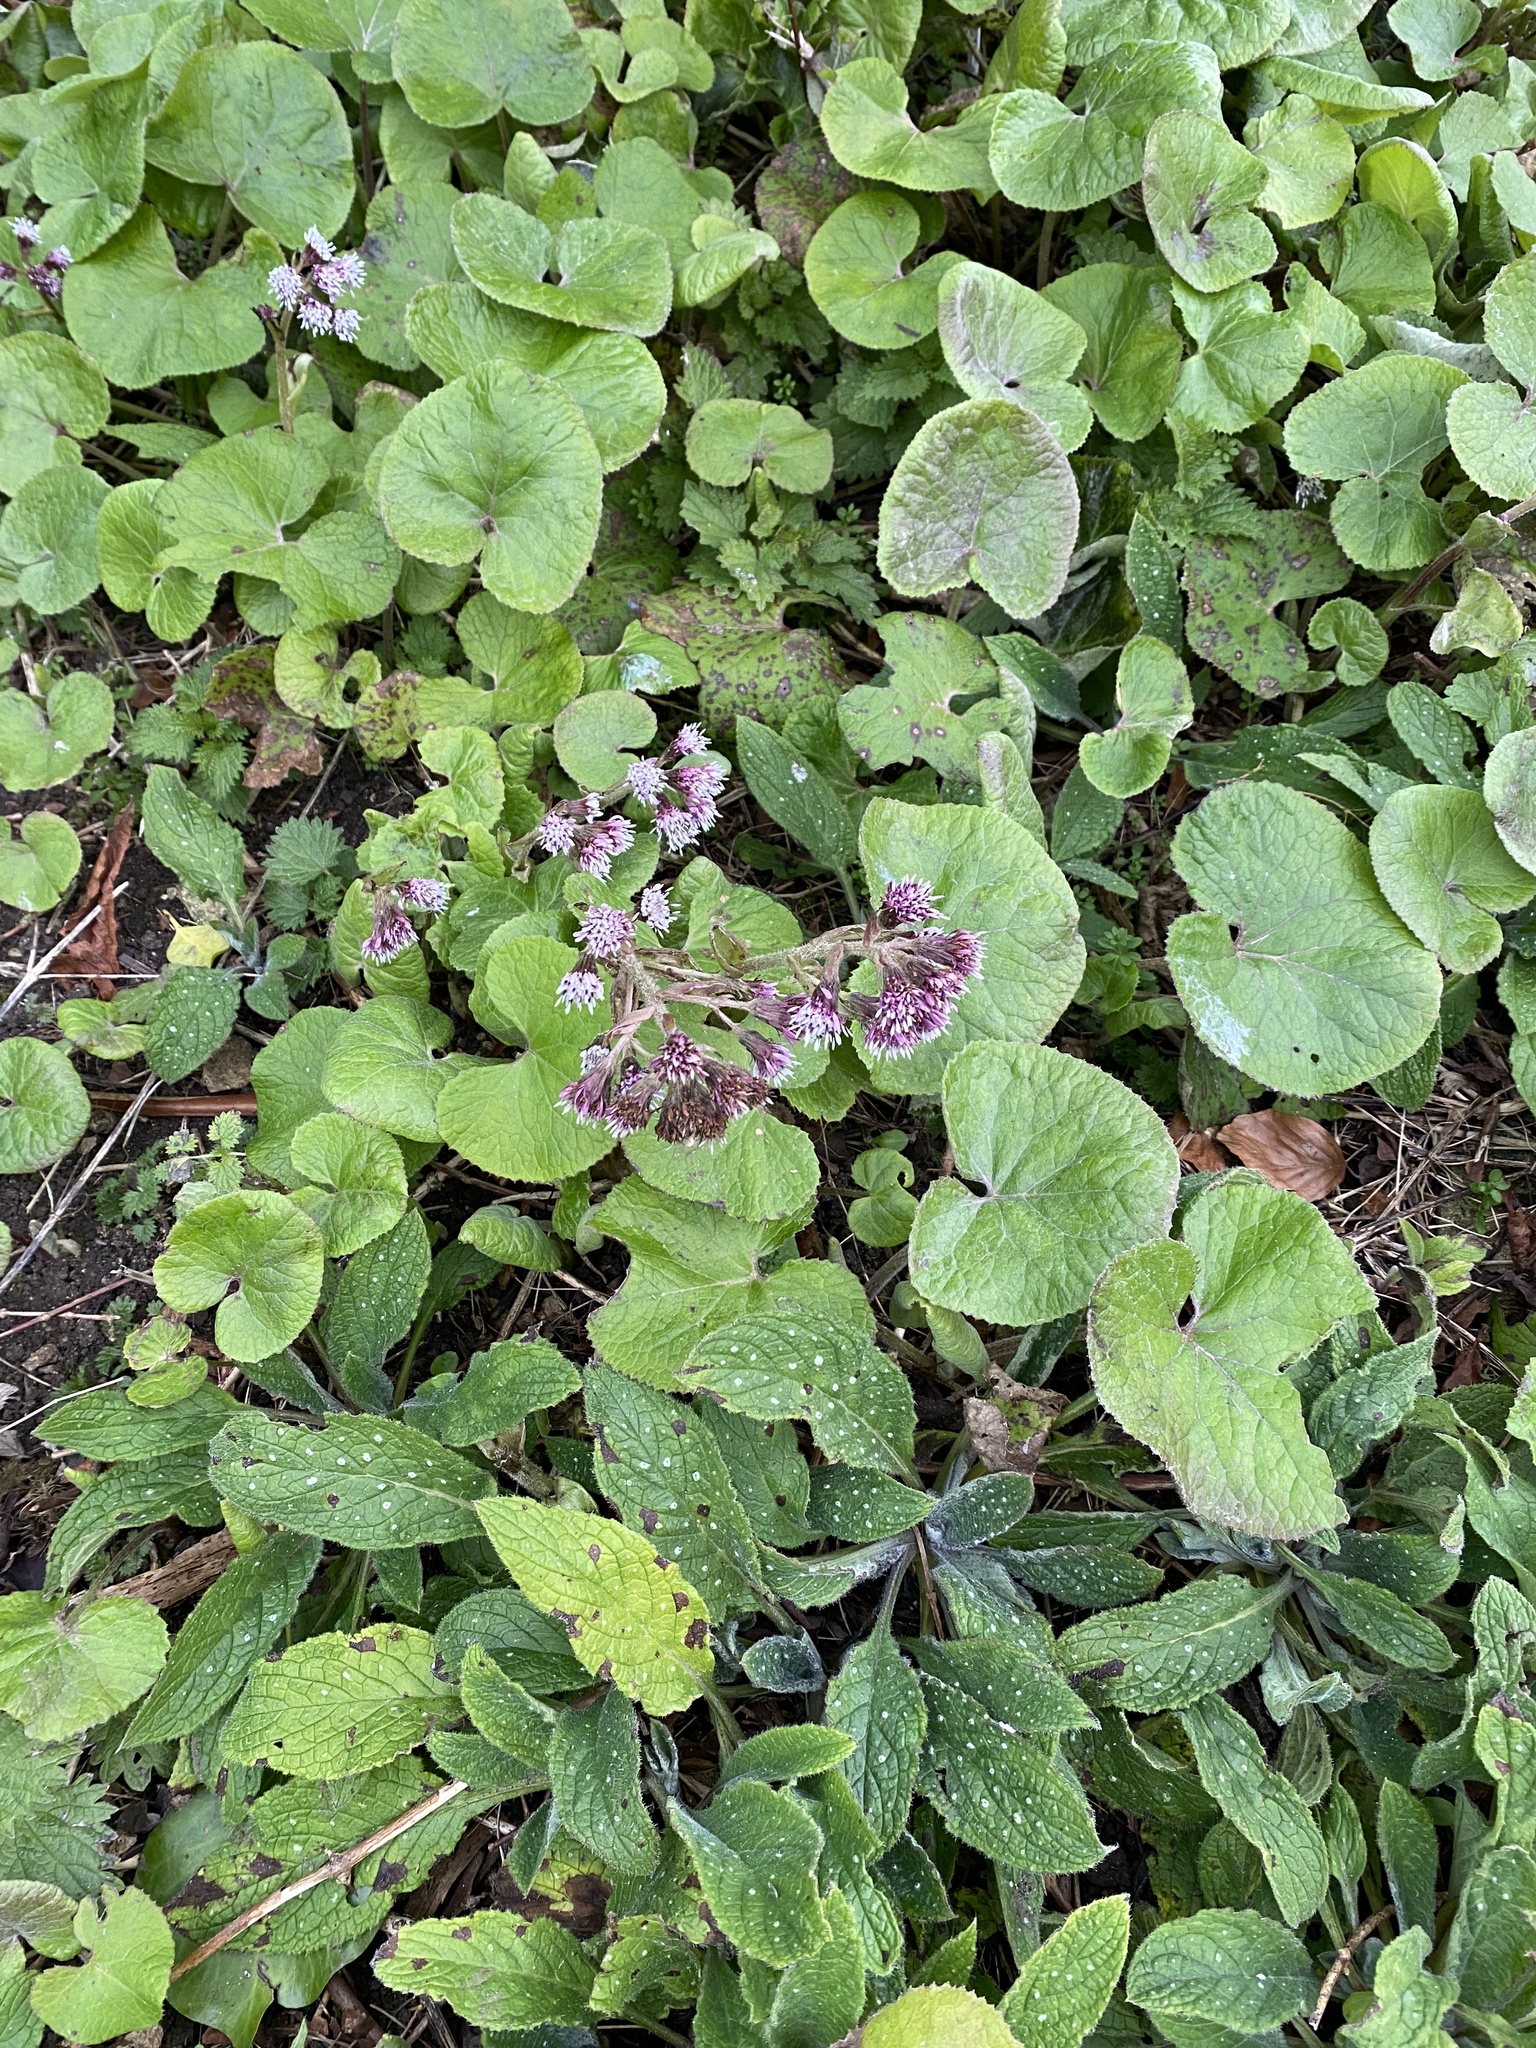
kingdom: Plantae
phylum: Tracheophyta
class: Magnoliopsida
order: Asterales
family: Asteraceae
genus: Petasites
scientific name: Petasites pyrenaicus
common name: Winter heliotrope
